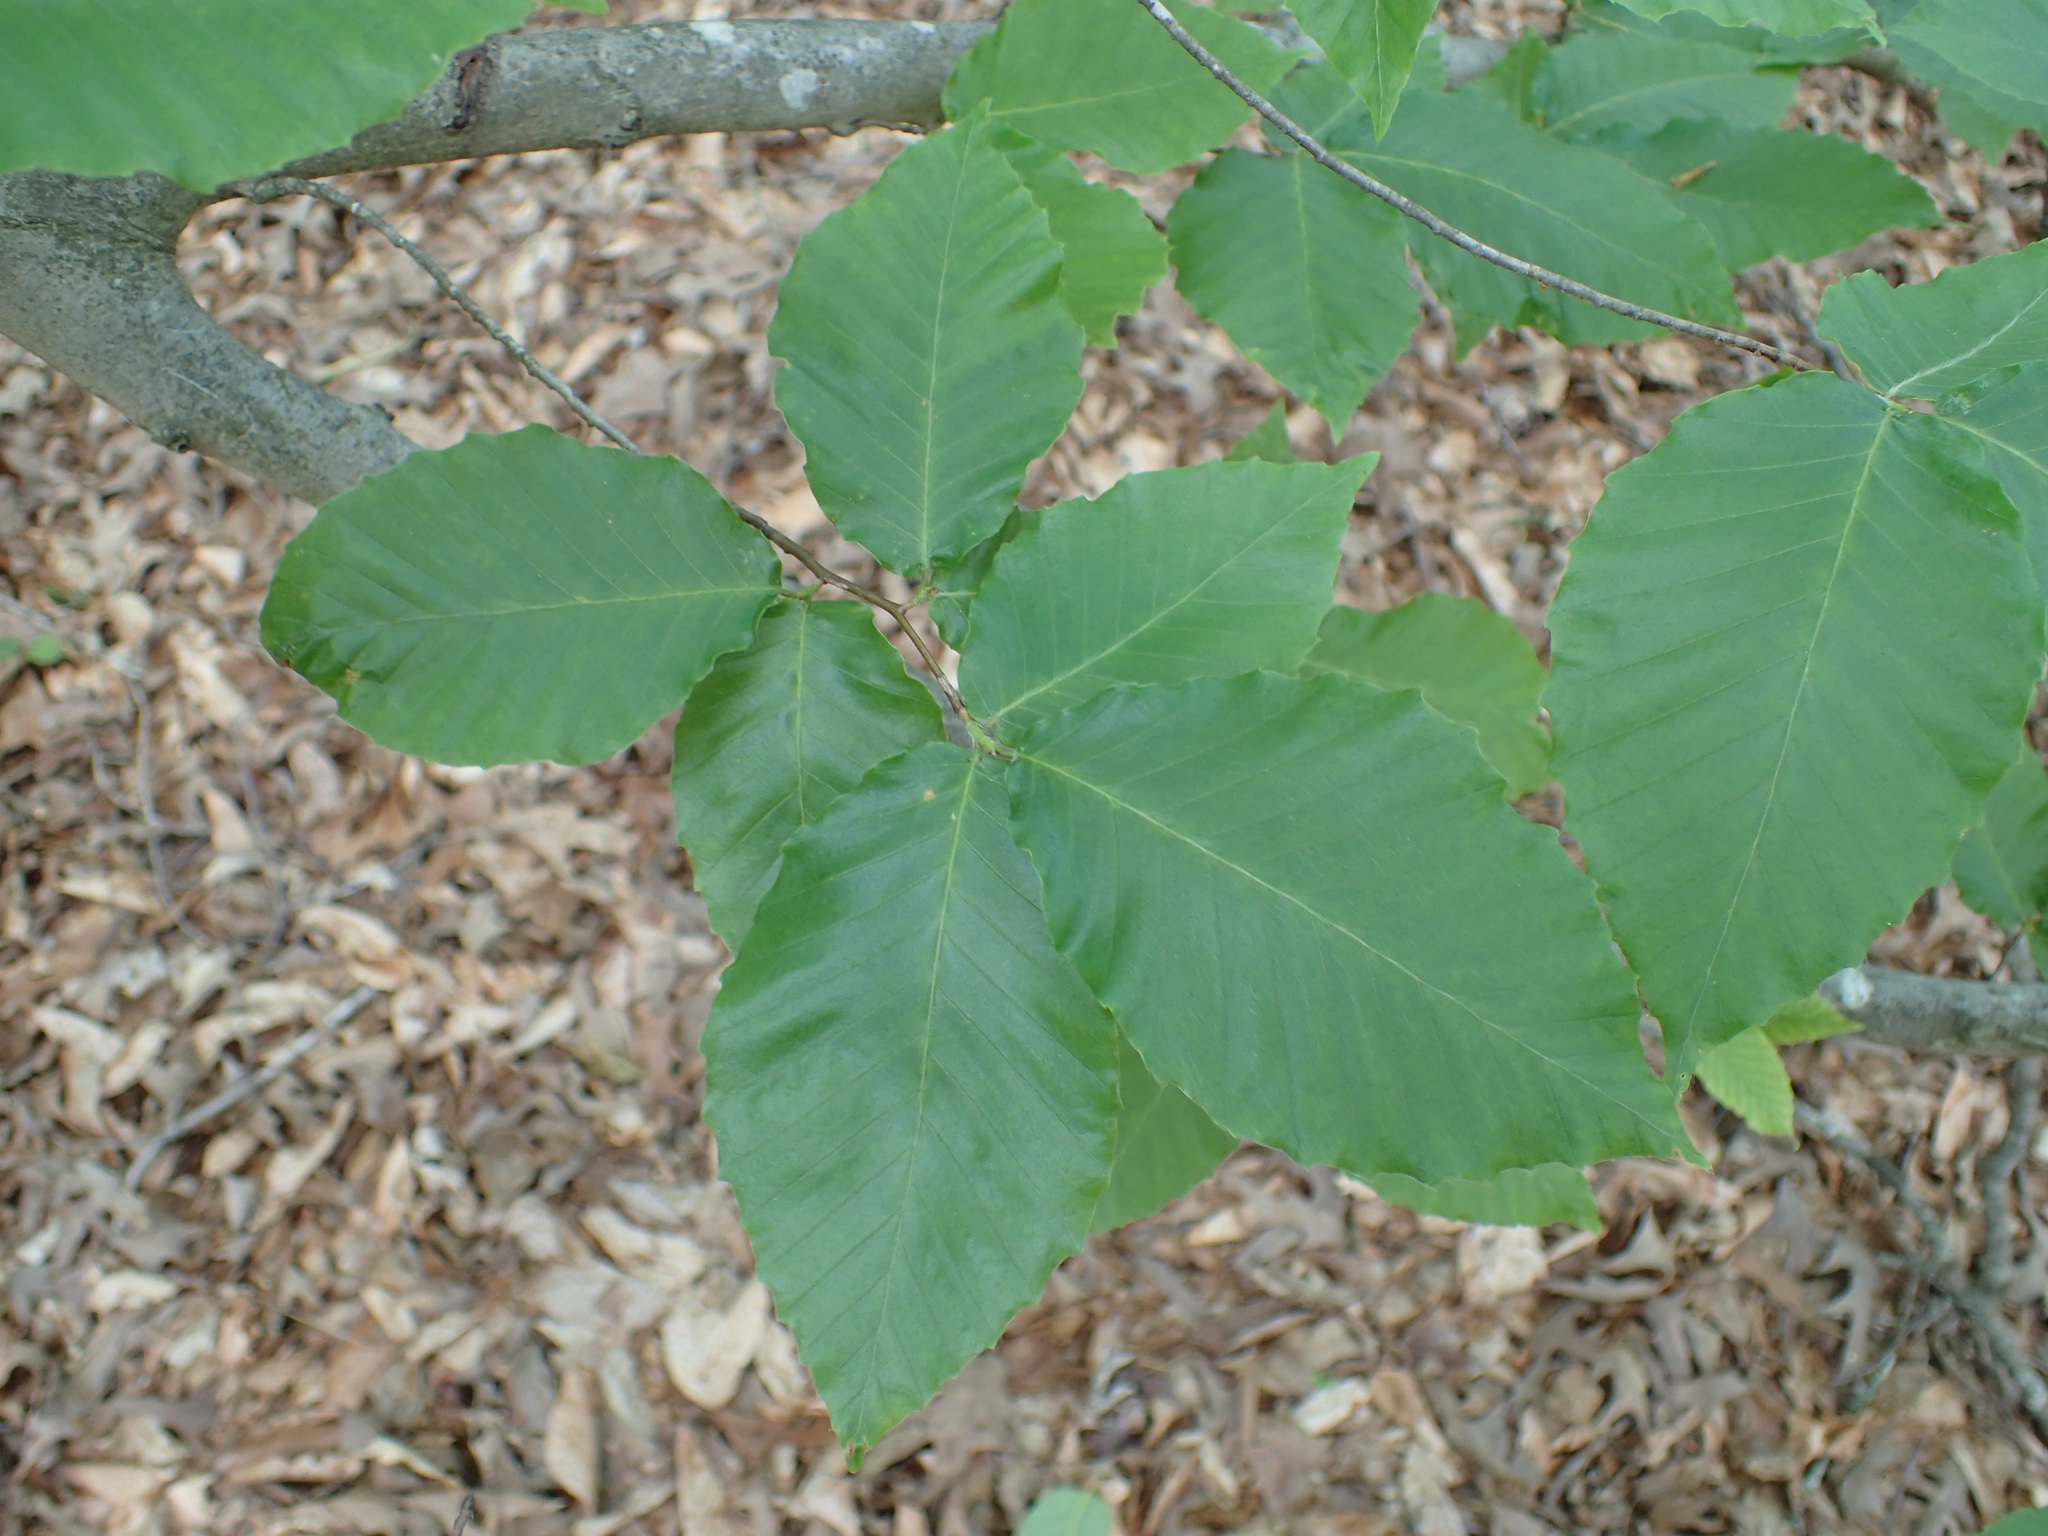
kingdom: Plantae
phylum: Tracheophyta
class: Magnoliopsida
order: Fagales
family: Fagaceae
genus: Fagus
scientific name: Fagus grandifolia
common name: American beech
